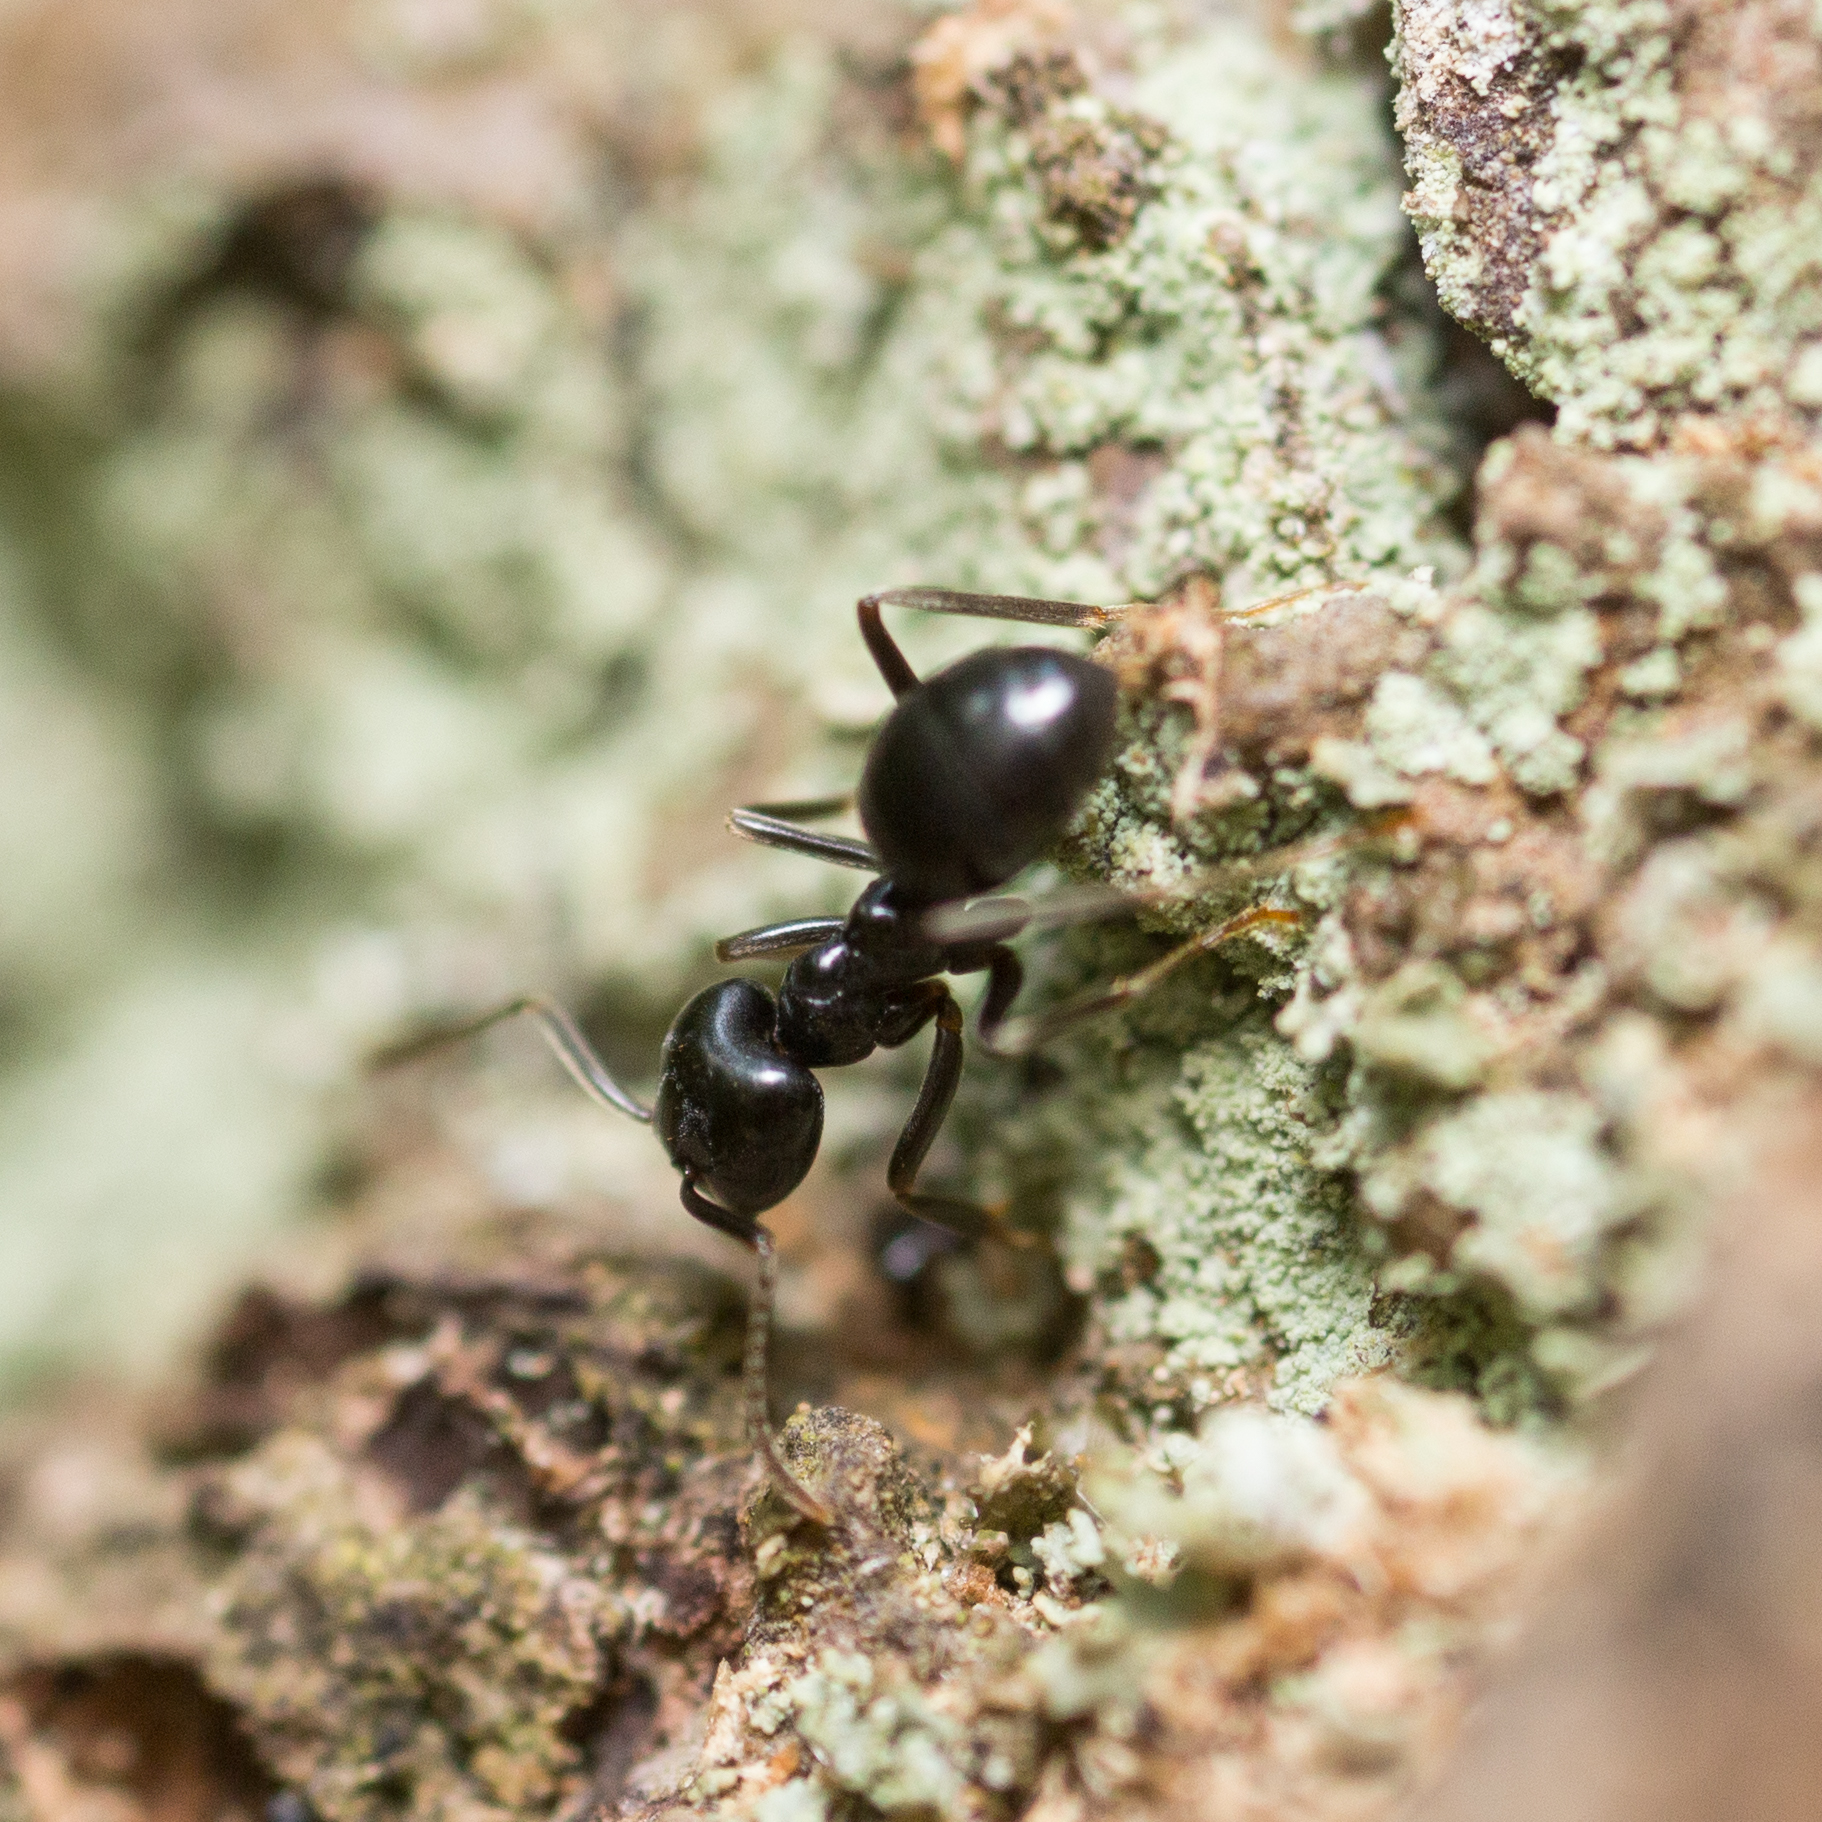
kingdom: Animalia
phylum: Arthropoda
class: Insecta
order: Hymenoptera
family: Formicidae
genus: Lasius
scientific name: Lasius fuliginosus
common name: Jet ant
